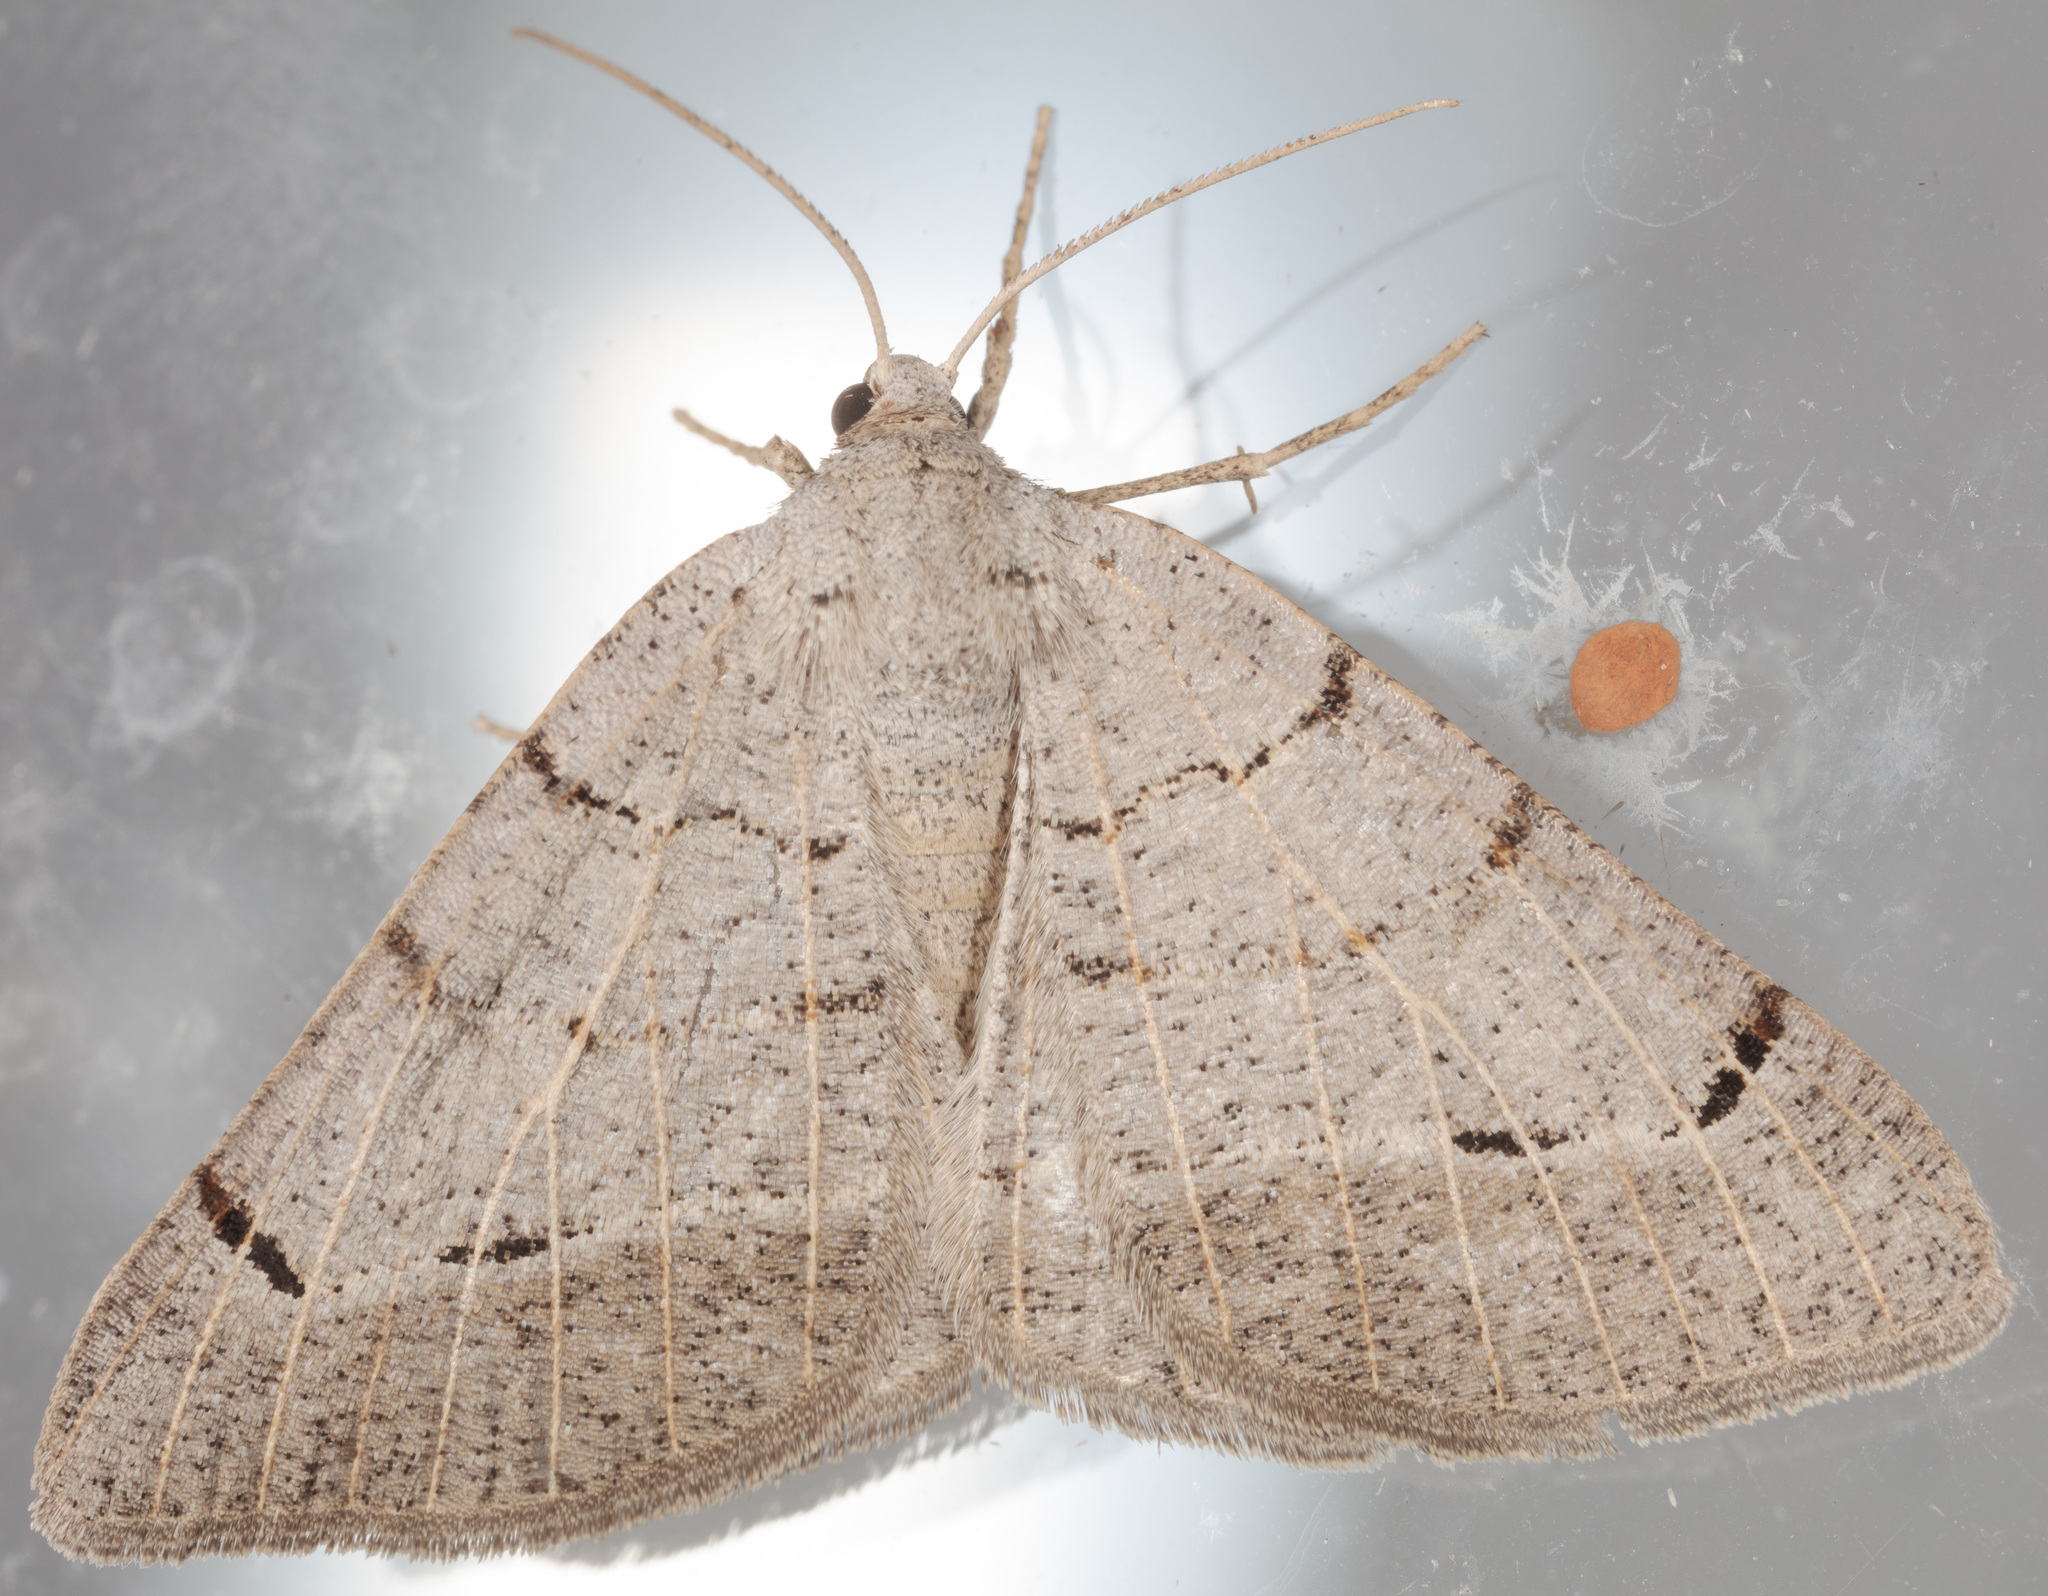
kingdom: Animalia
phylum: Arthropoda
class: Insecta
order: Lepidoptera
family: Geometridae
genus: Isturgia
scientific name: Isturgia dislocaria
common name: Pale-viened enconista
